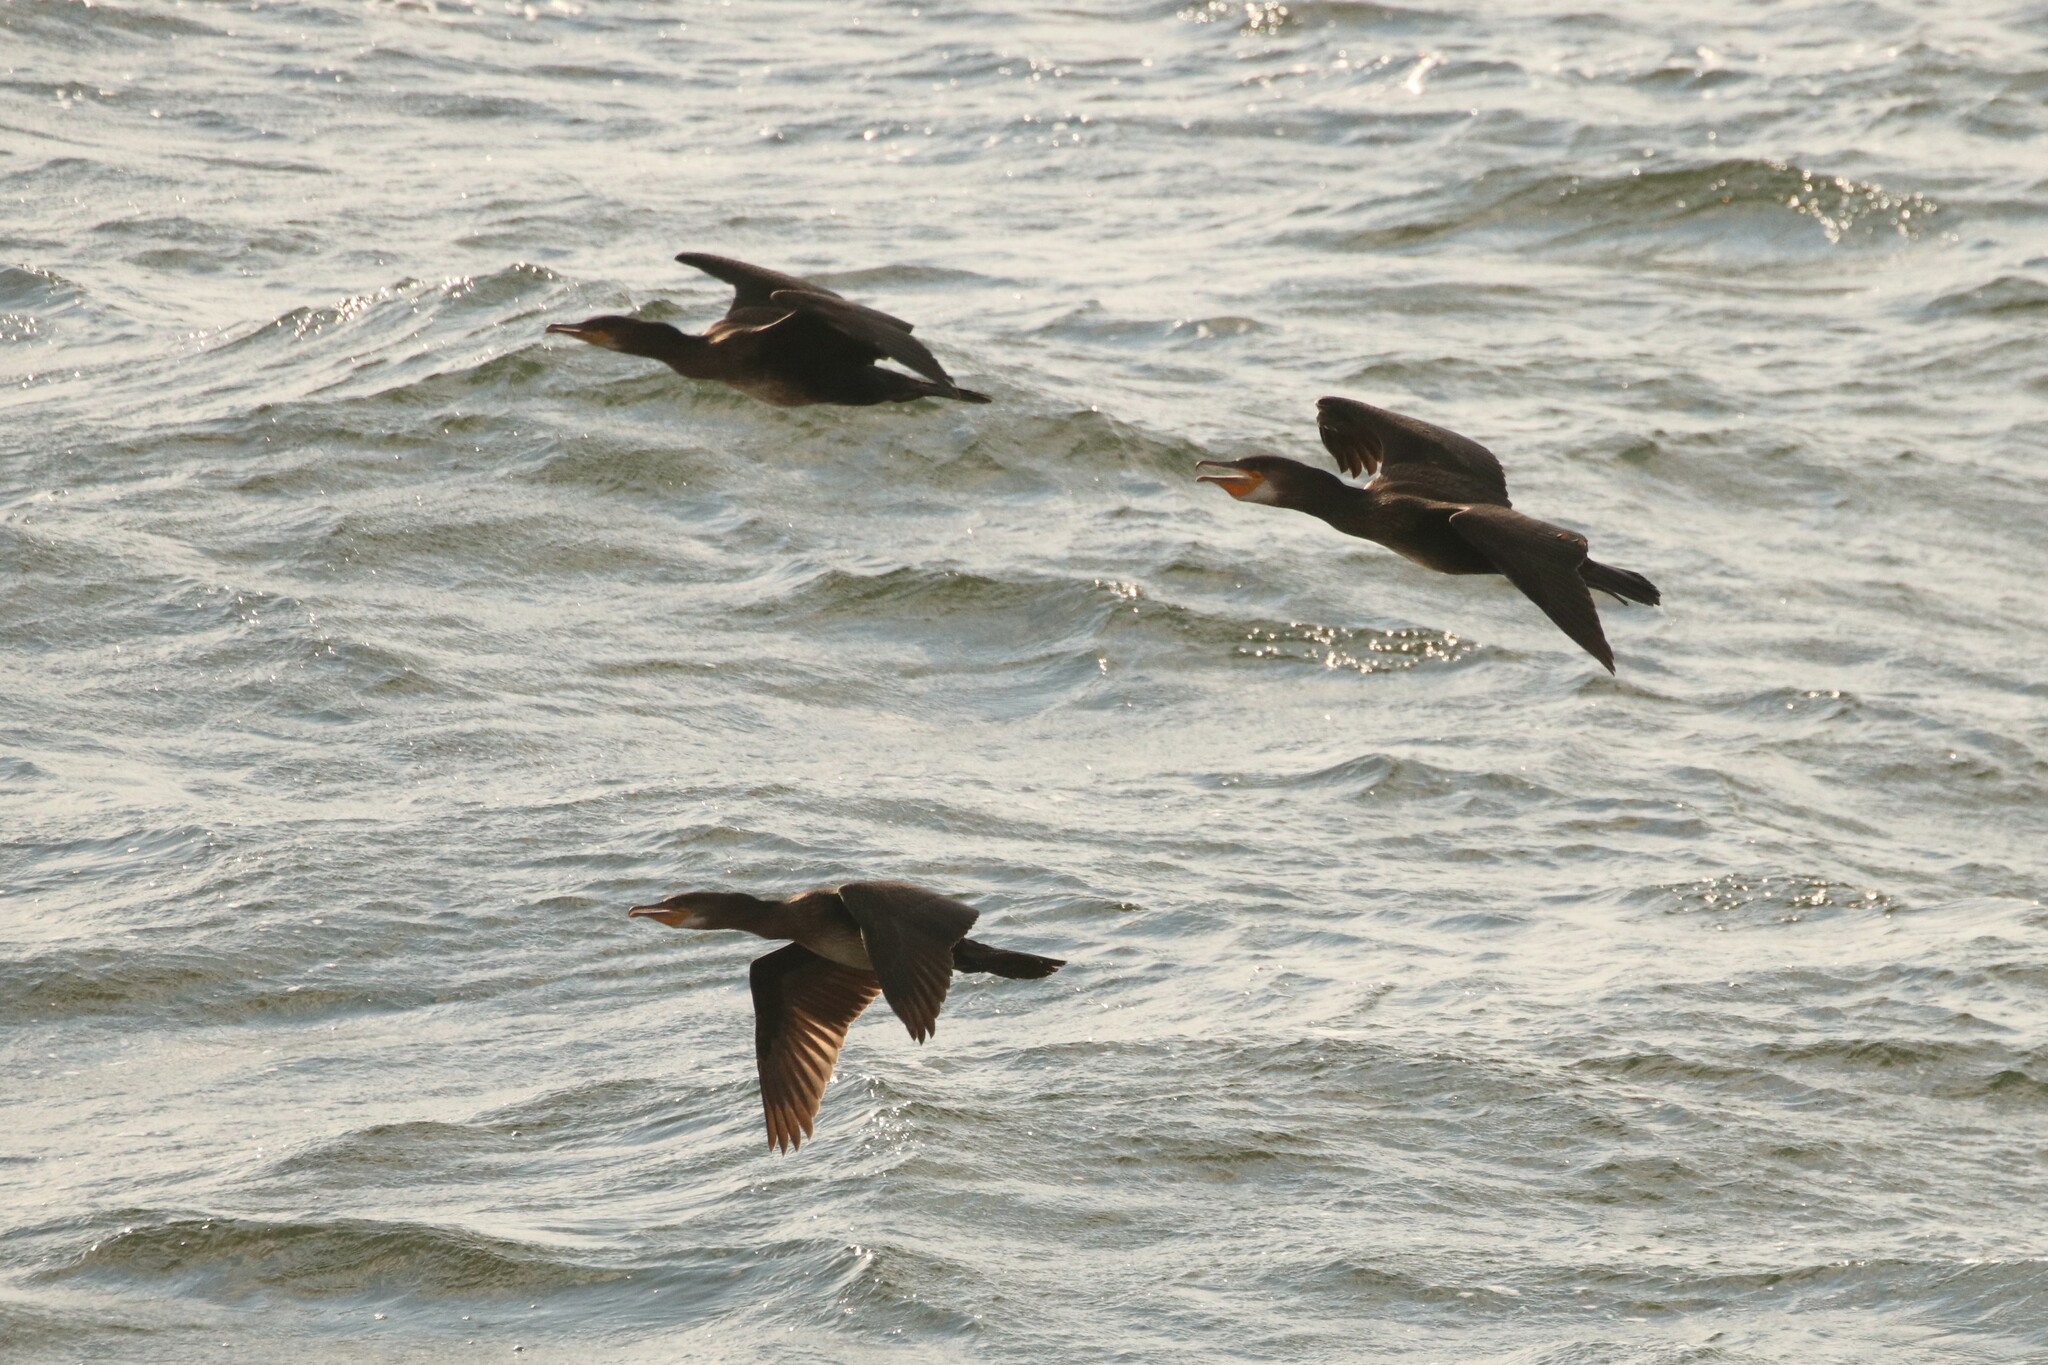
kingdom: Animalia
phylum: Chordata
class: Aves
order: Suliformes
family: Phalacrocoracidae
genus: Phalacrocorax
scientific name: Phalacrocorax carbo
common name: Great cormorant
